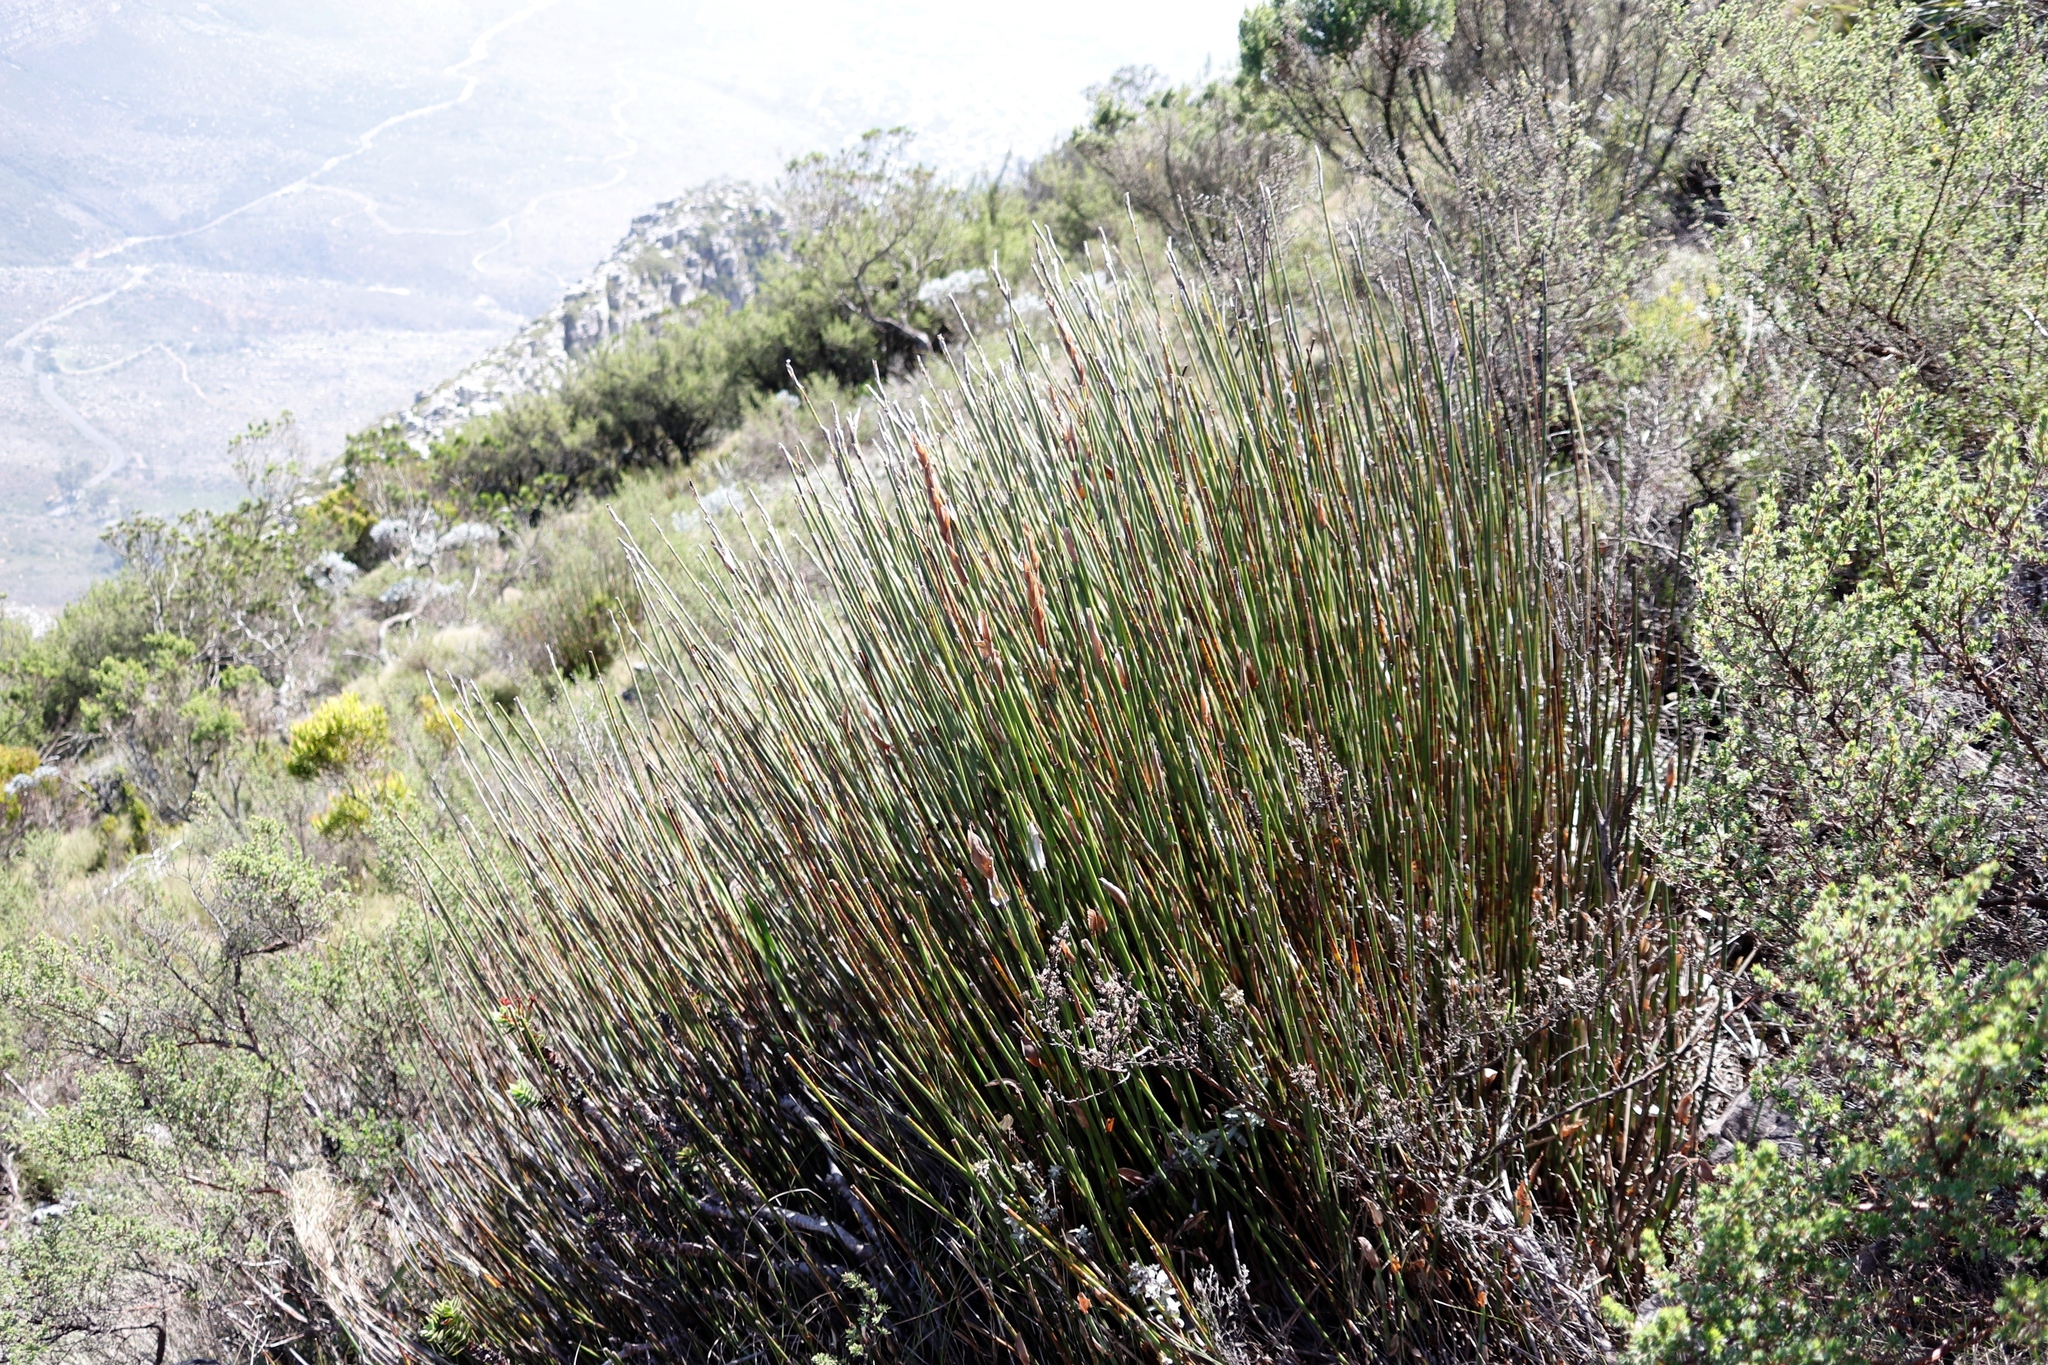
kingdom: Plantae
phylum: Tracheophyta
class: Liliopsida
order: Poales
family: Restionaceae
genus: Elegia
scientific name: Elegia racemosa
